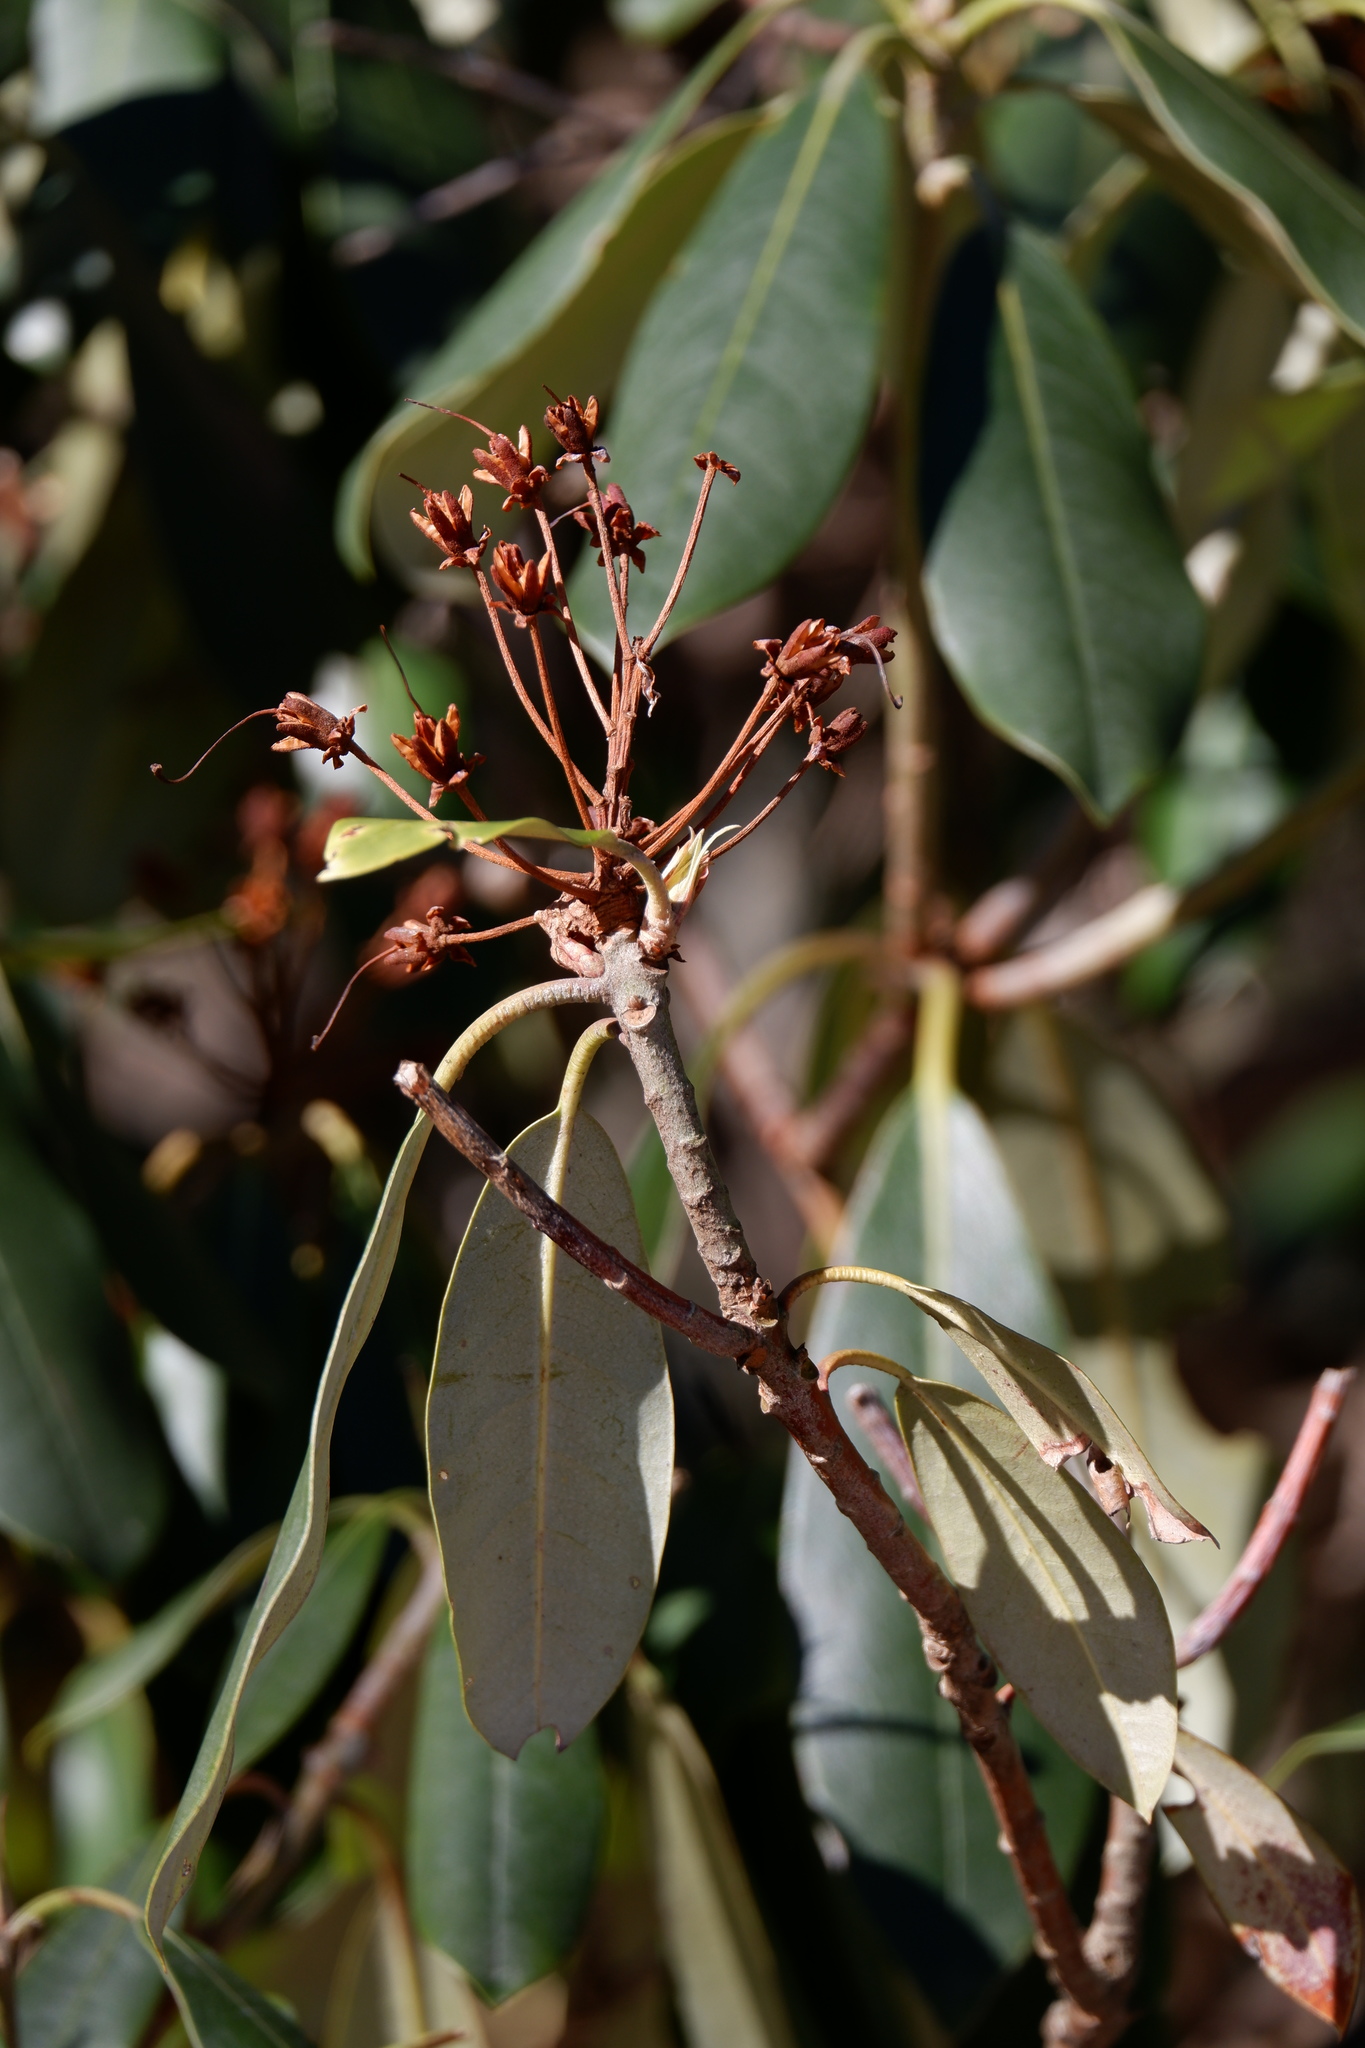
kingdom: Plantae
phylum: Tracheophyta
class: Magnoliopsida
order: Ericales
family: Ericaceae
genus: Rhododendron
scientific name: Rhododendron maximum
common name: Great rhododendron
